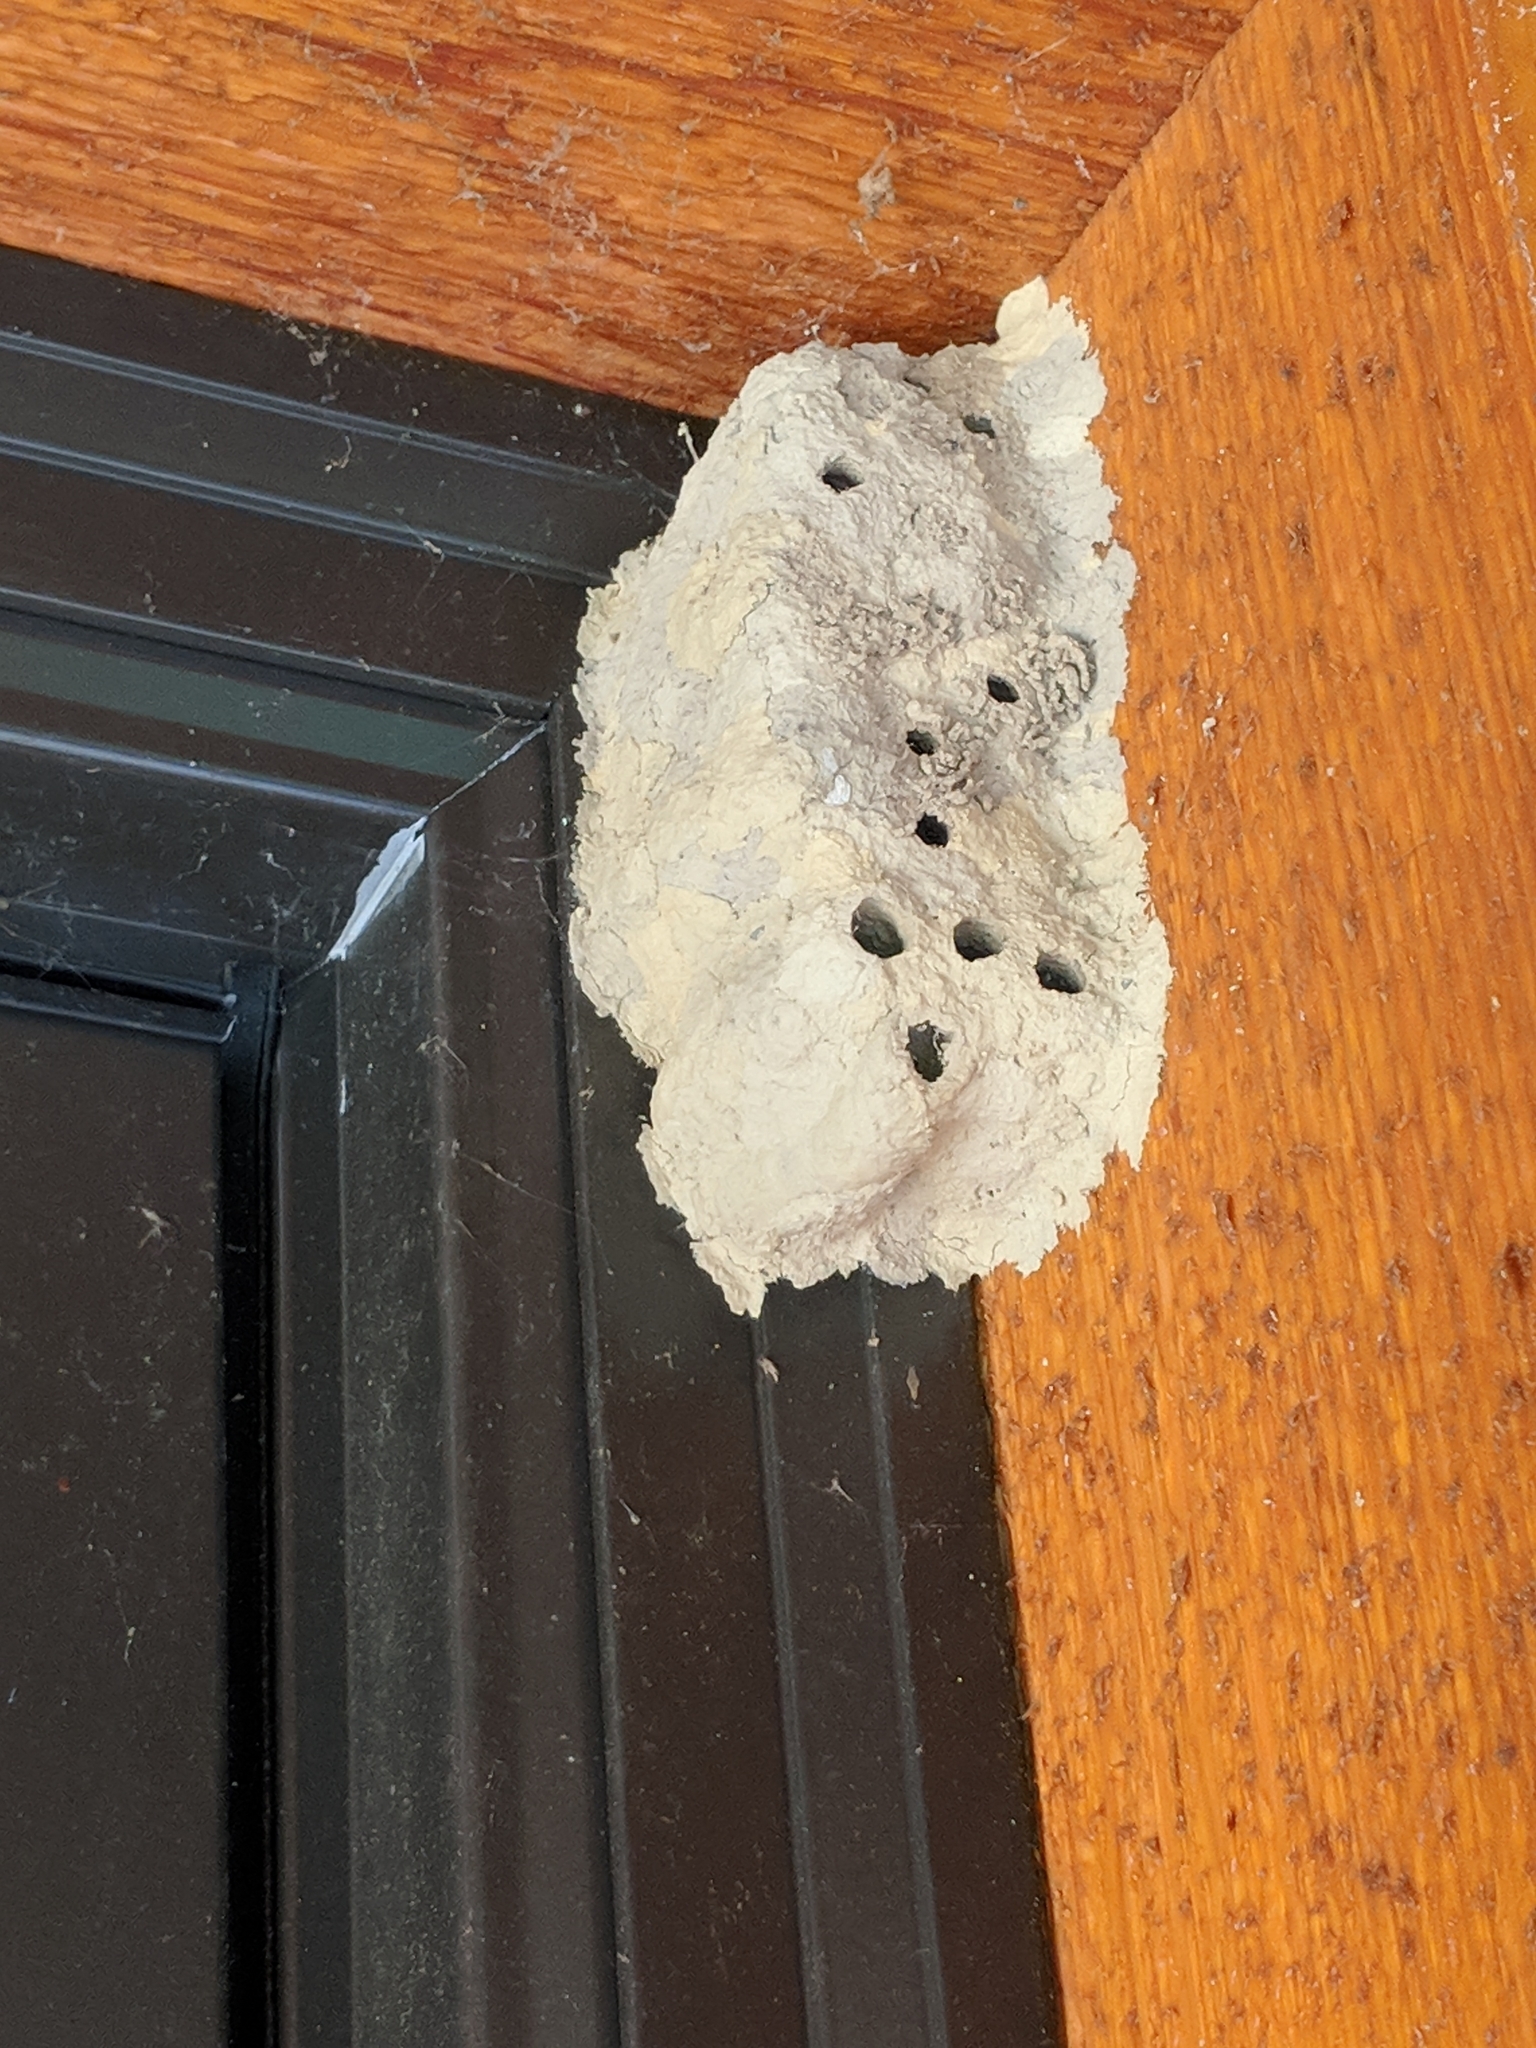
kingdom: Animalia
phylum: Arthropoda
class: Insecta
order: Hymenoptera
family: Sphecidae
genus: Sceliphron
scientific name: Sceliphron caementarium
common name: Mud dauber
